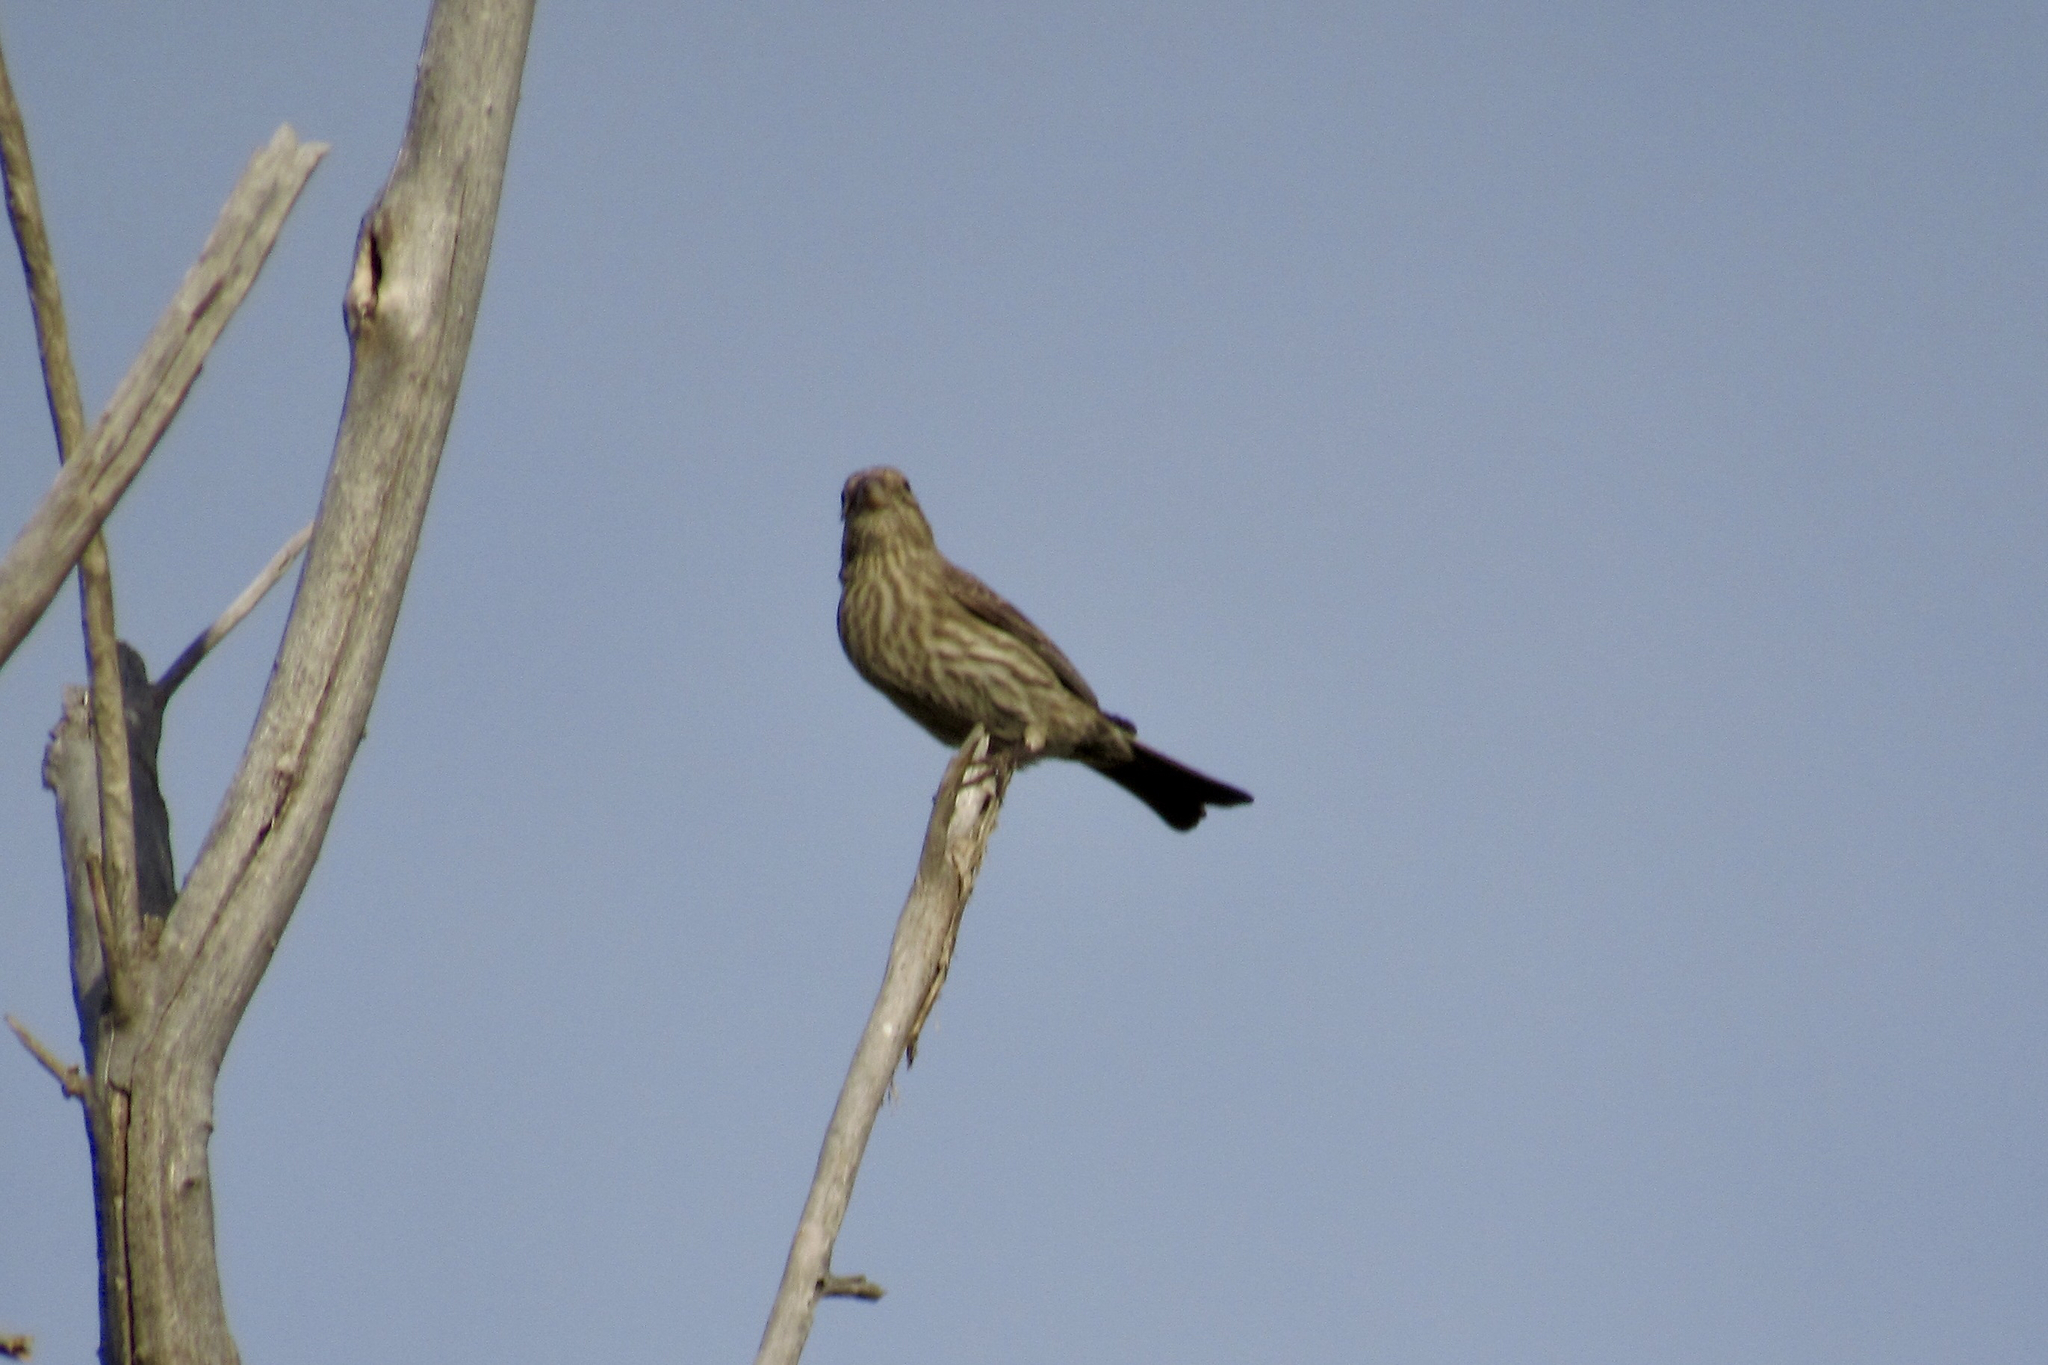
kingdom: Animalia
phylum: Chordata
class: Aves
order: Passeriformes
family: Fringillidae
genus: Haemorhous
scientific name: Haemorhous mexicanus
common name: House finch
